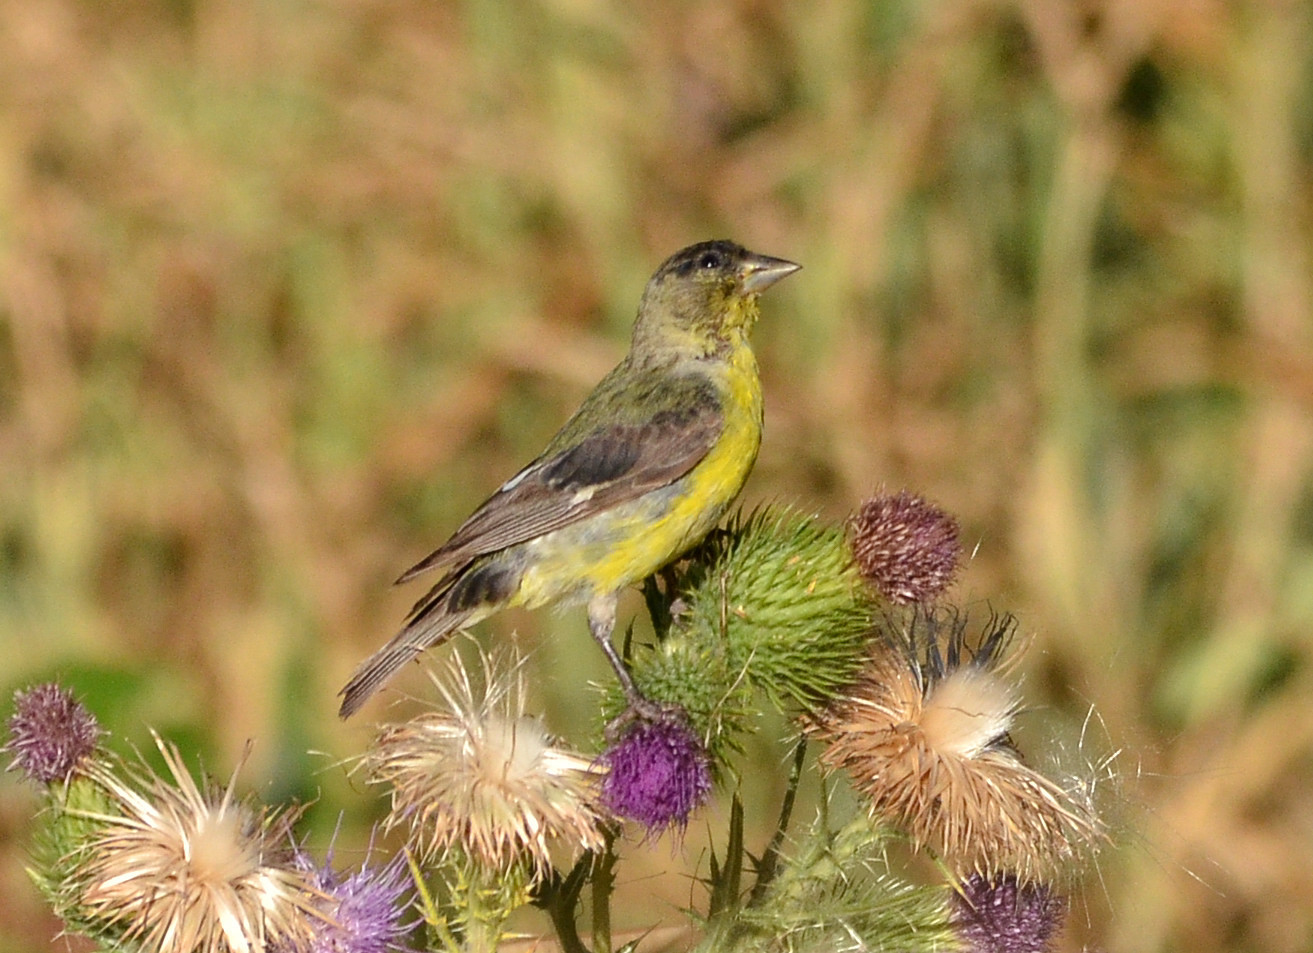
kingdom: Animalia
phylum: Chordata
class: Aves
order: Passeriformes
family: Fringillidae
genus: Spinus
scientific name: Spinus psaltria
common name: Lesser goldfinch
